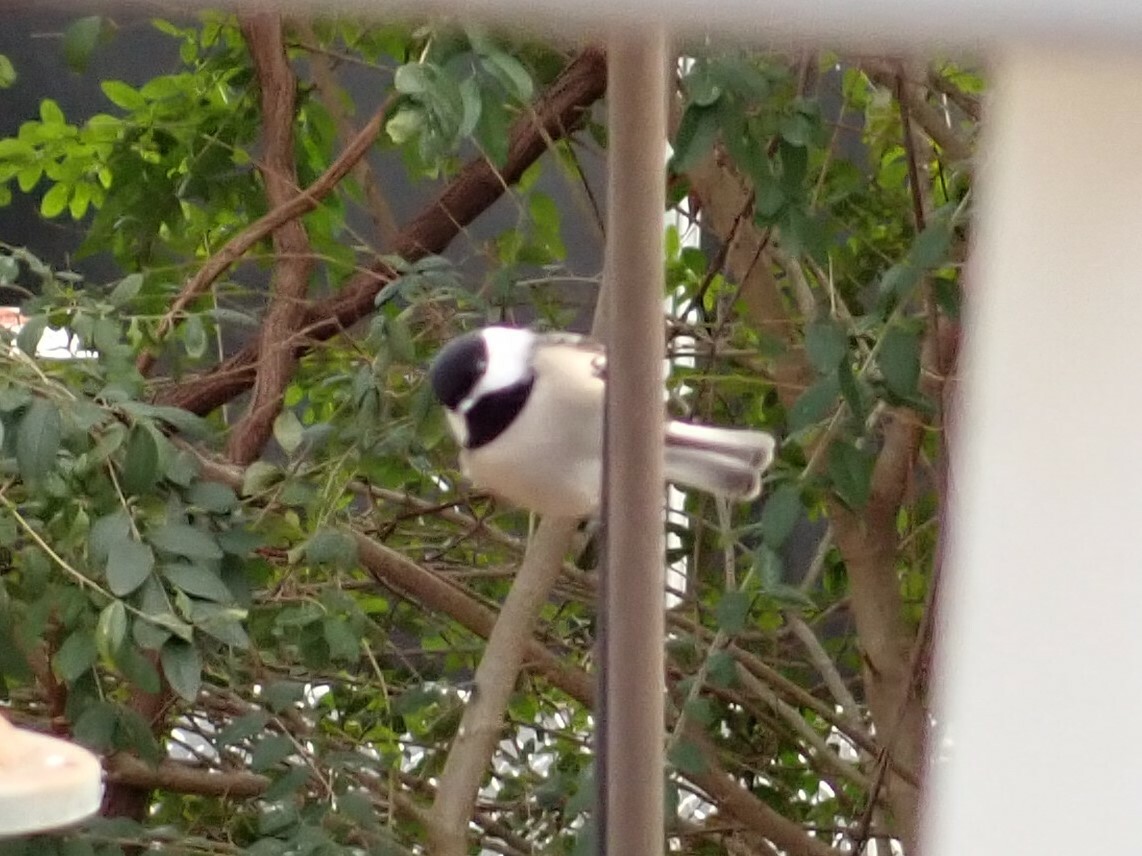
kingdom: Animalia
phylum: Chordata
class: Aves
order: Passeriformes
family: Paridae
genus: Poecile
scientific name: Poecile carolinensis
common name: Carolina chickadee
